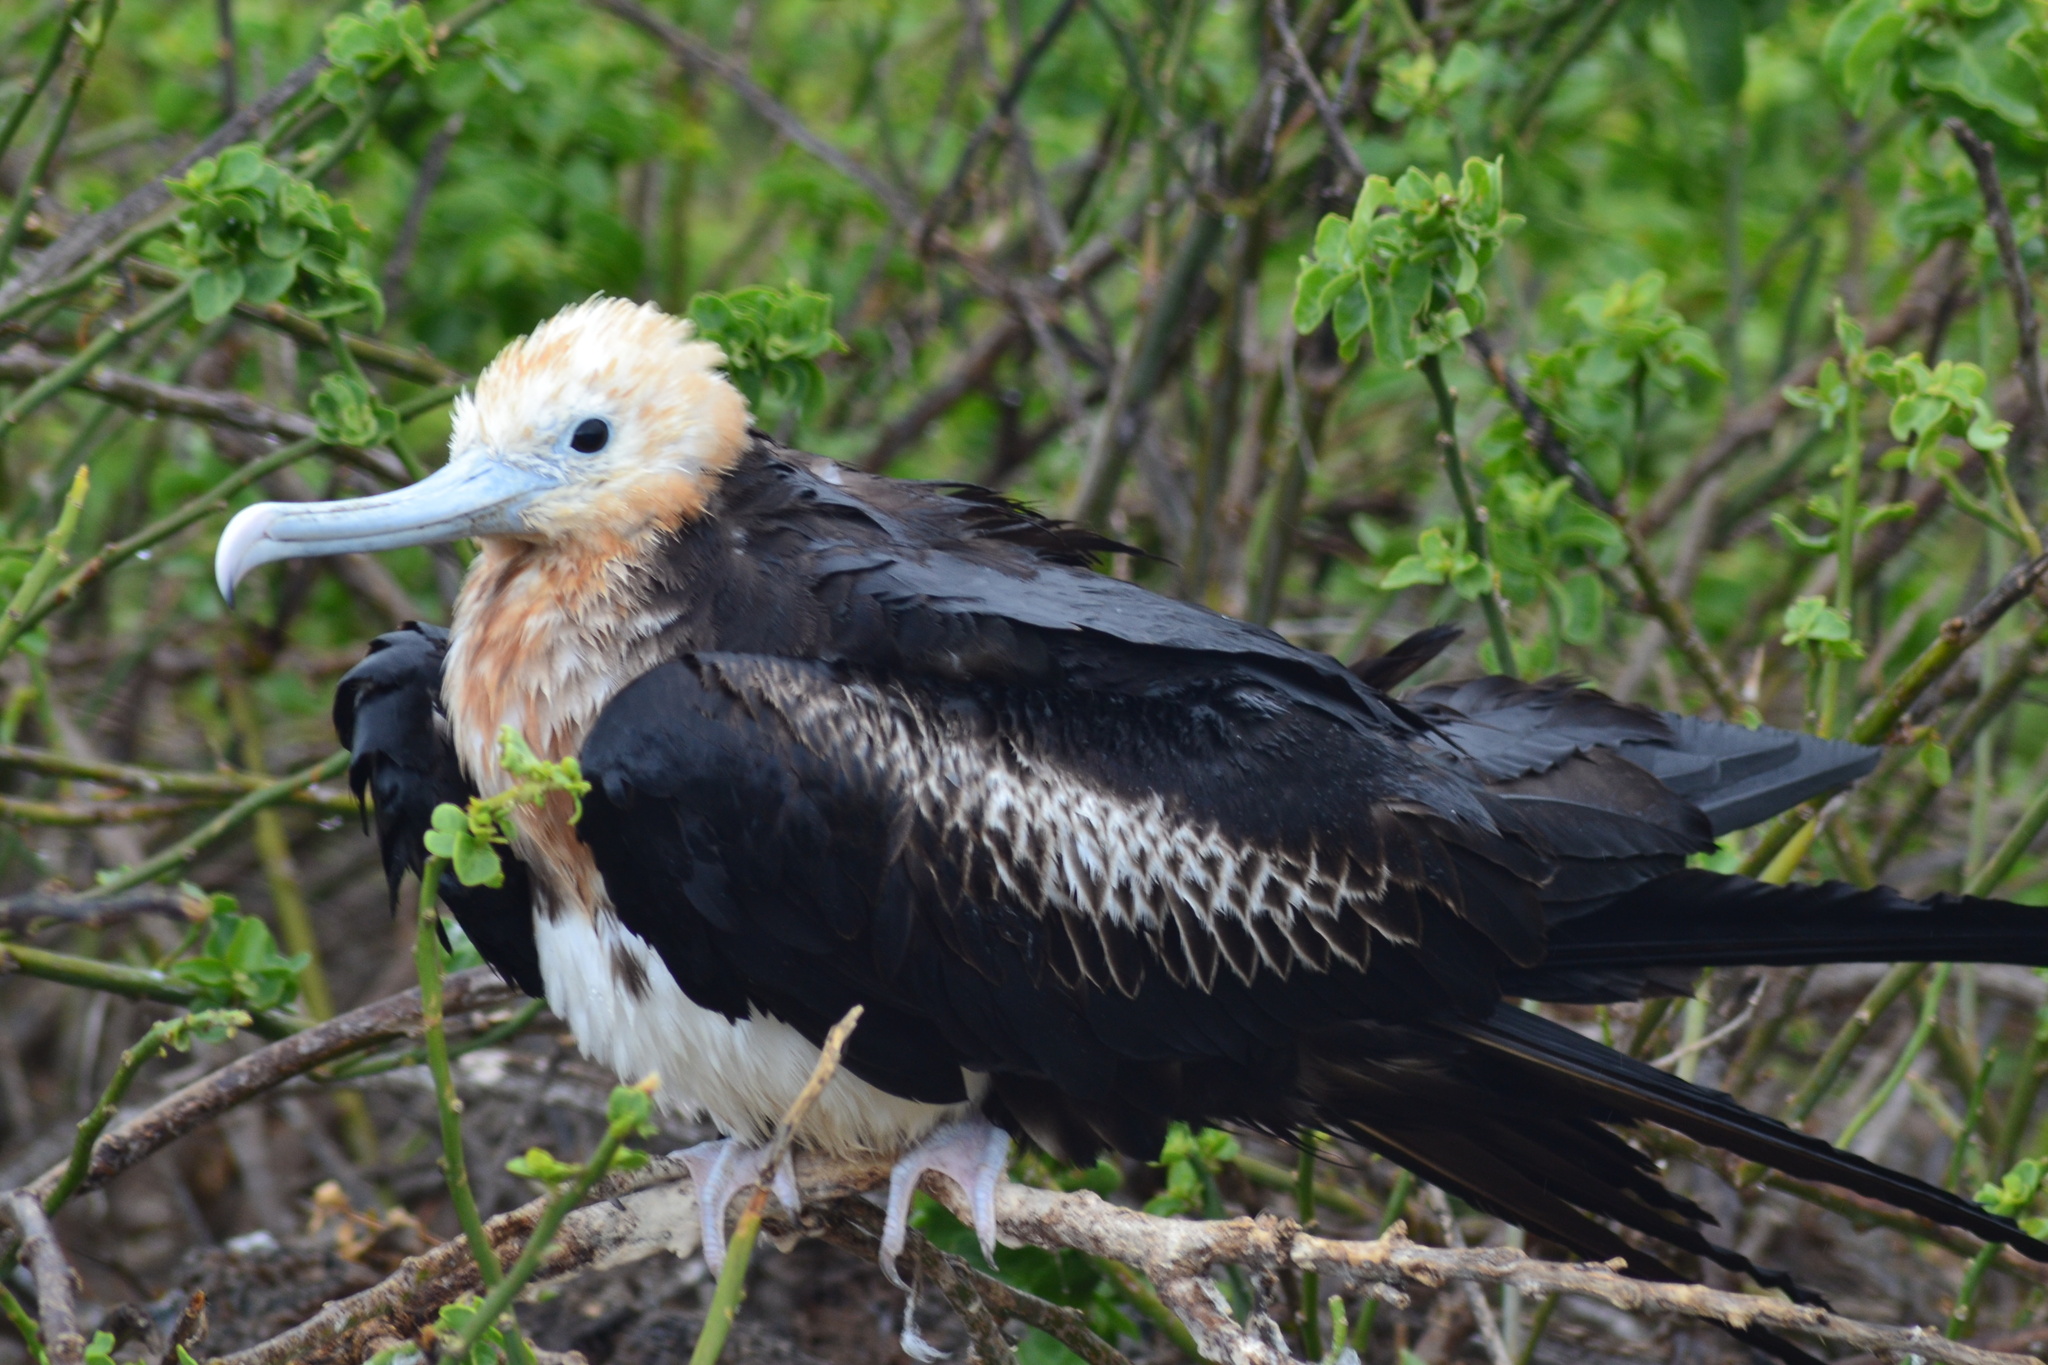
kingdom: Animalia
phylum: Chordata
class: Aves
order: Suliformes
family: Fregatidae
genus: Fregata
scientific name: Fregata minor
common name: Great frigatebird
